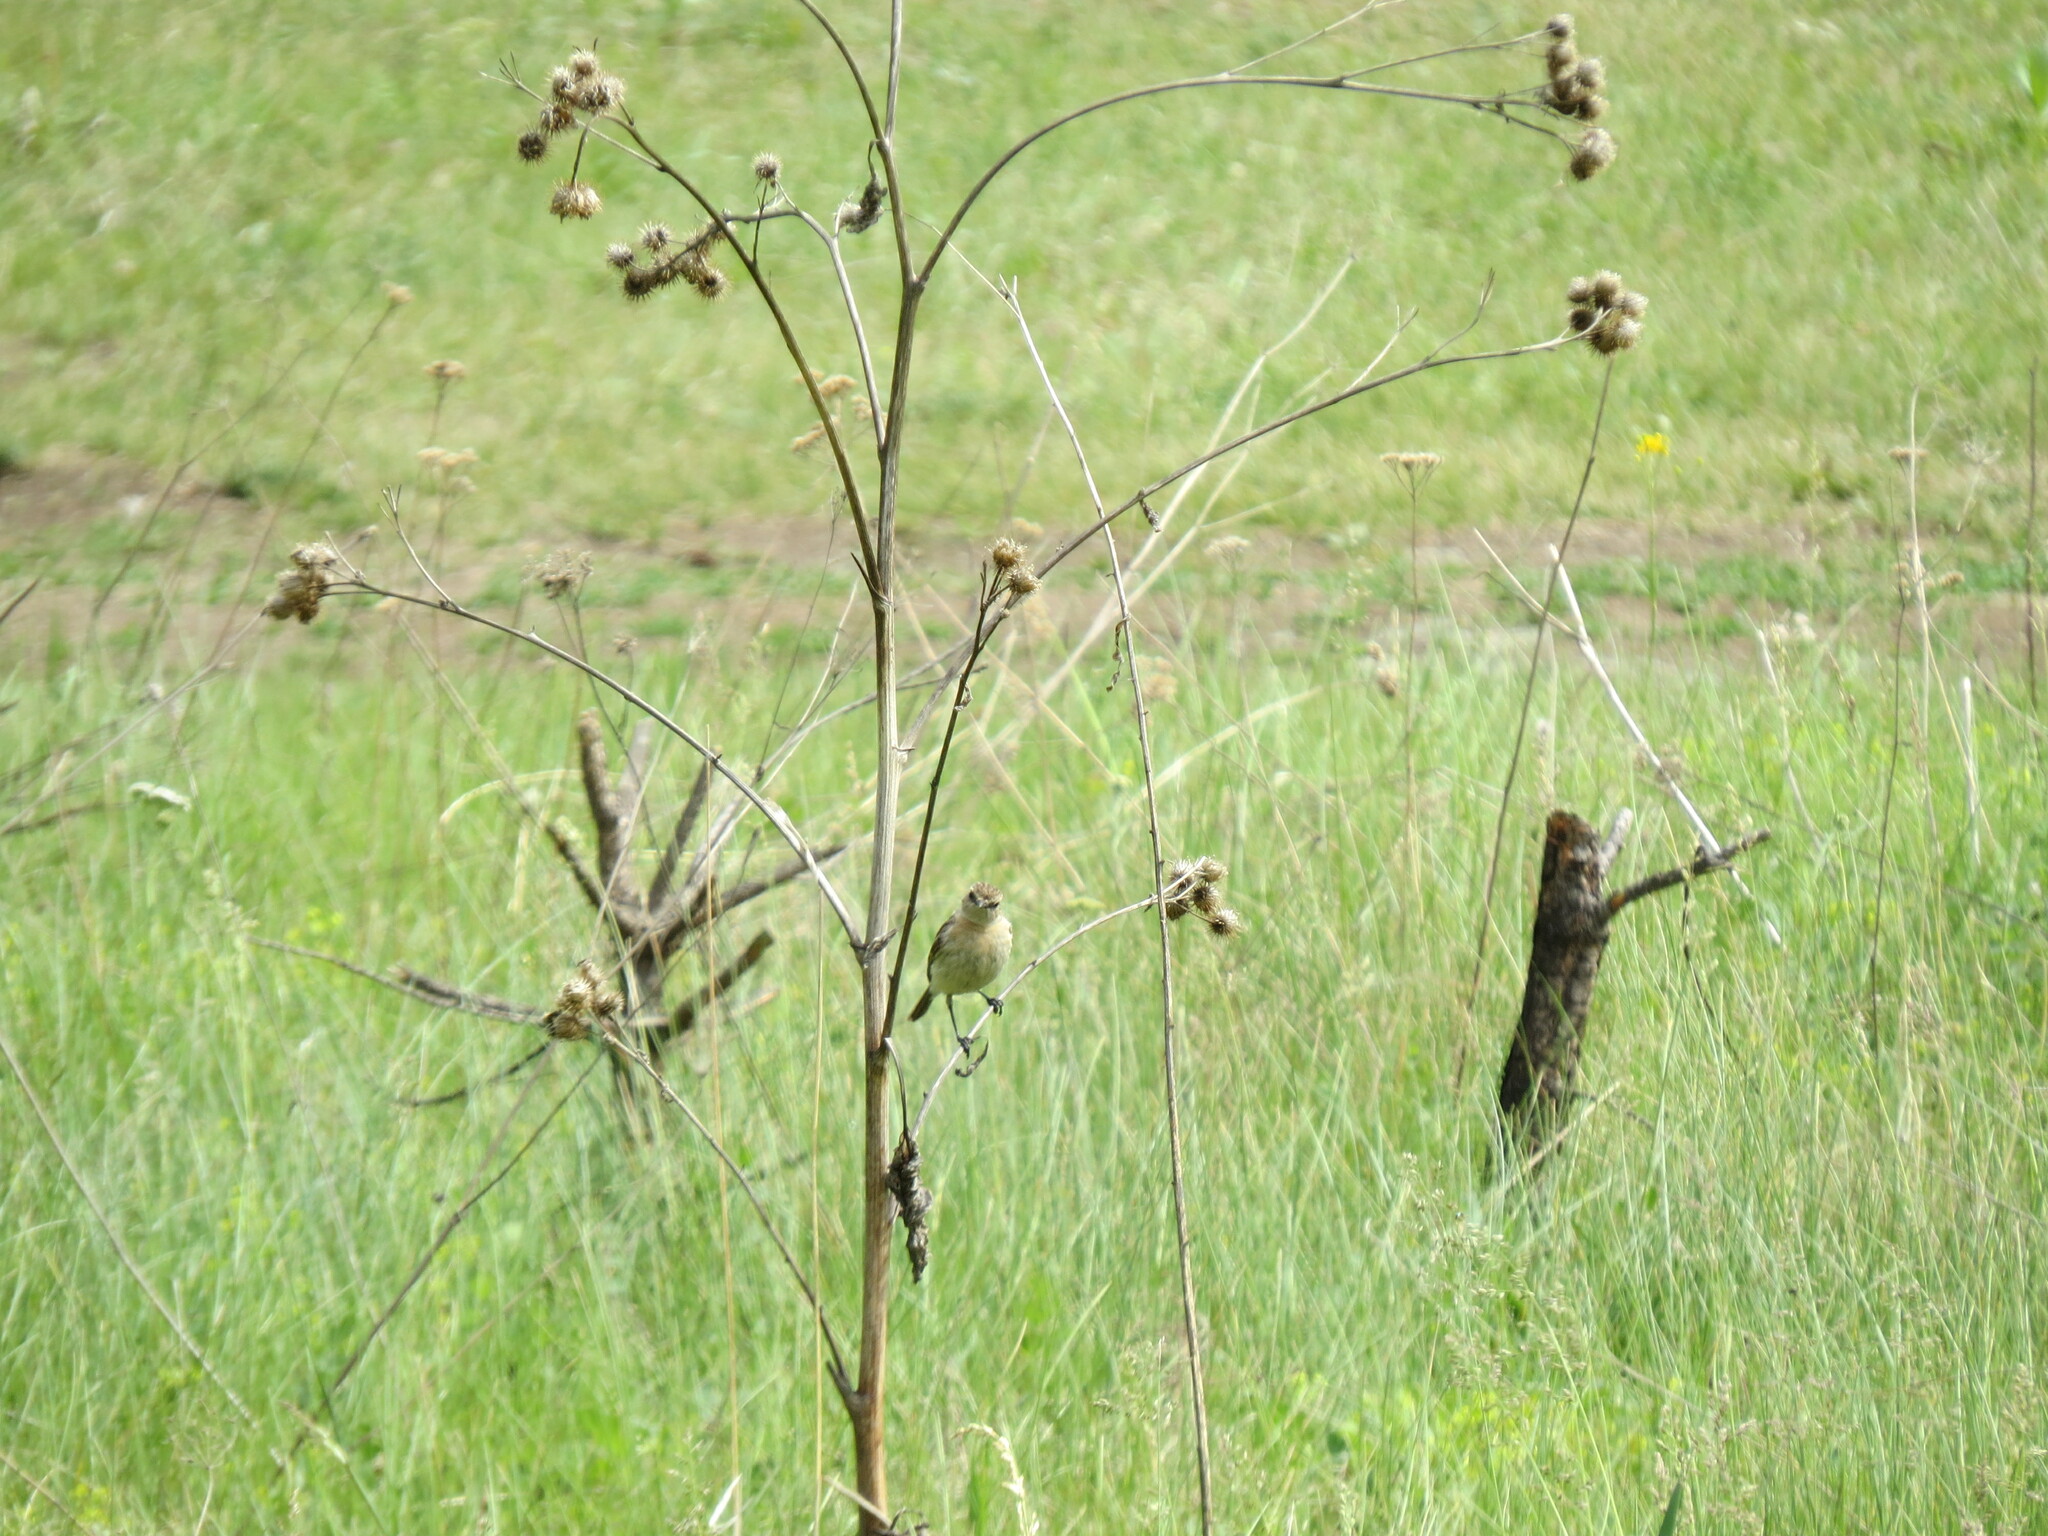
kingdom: Animalia
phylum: Chordata
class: Aves
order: Passeriformes
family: Muscicapidae
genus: Saxicola
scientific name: Saxicola maurus
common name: Siberian stonechat
